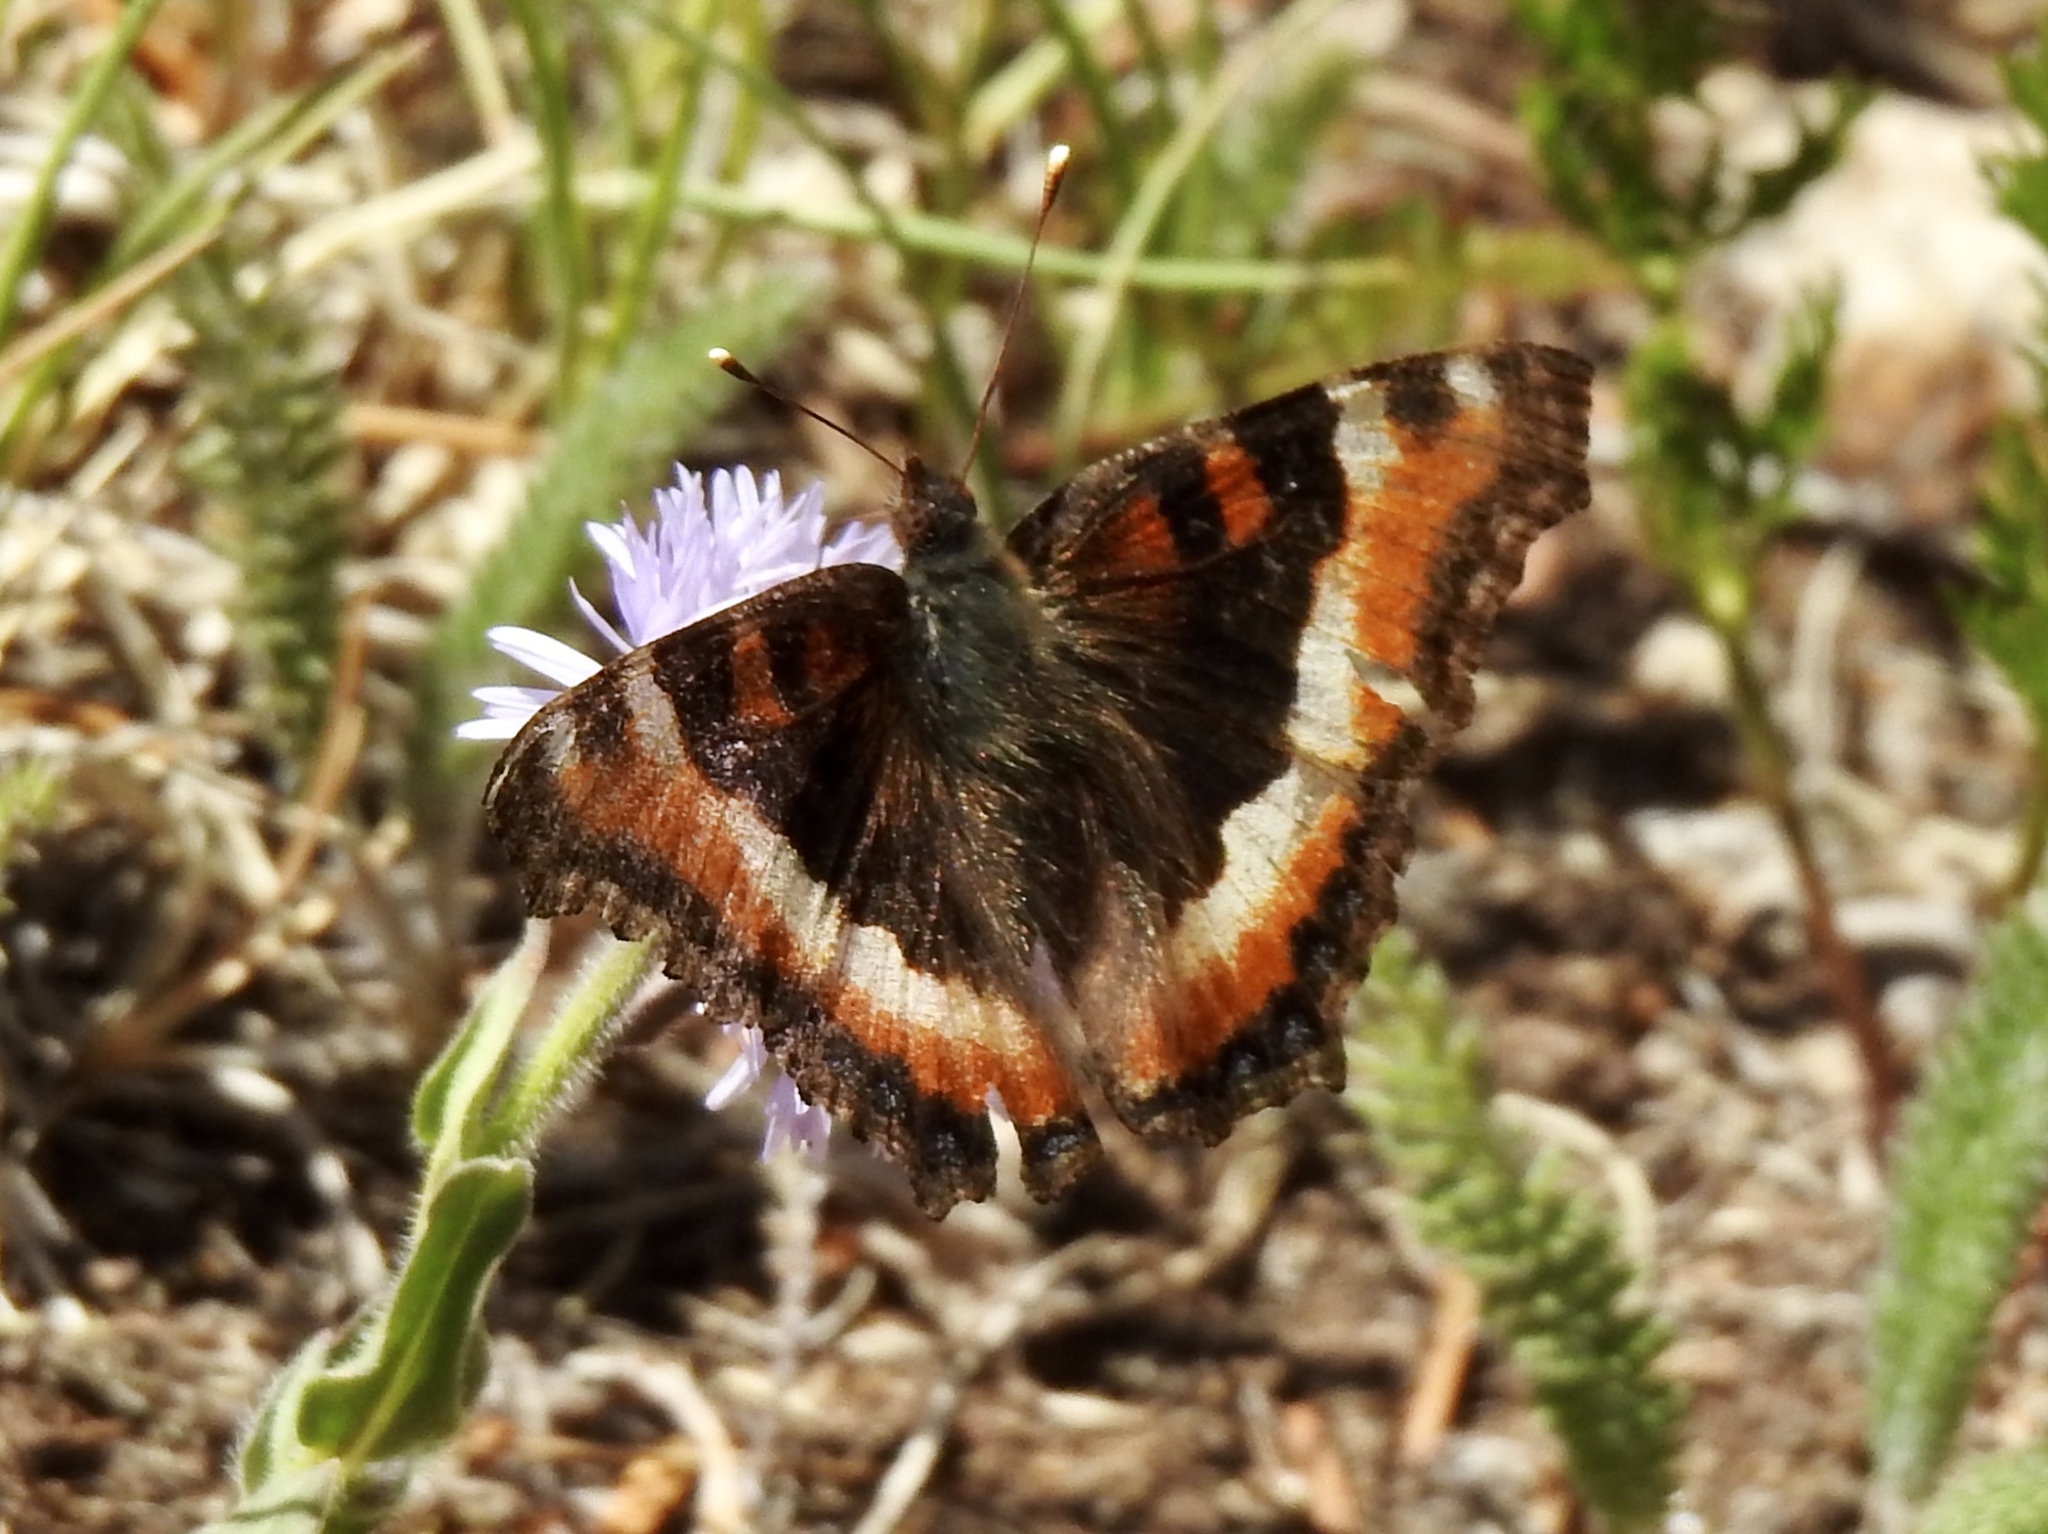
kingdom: Animalia
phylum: Arthropoda
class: Insecta
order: Lepidoptera
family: Nymphalidae
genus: Aglais
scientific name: Aglais milberti
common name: Milbert's tortoiseshell
